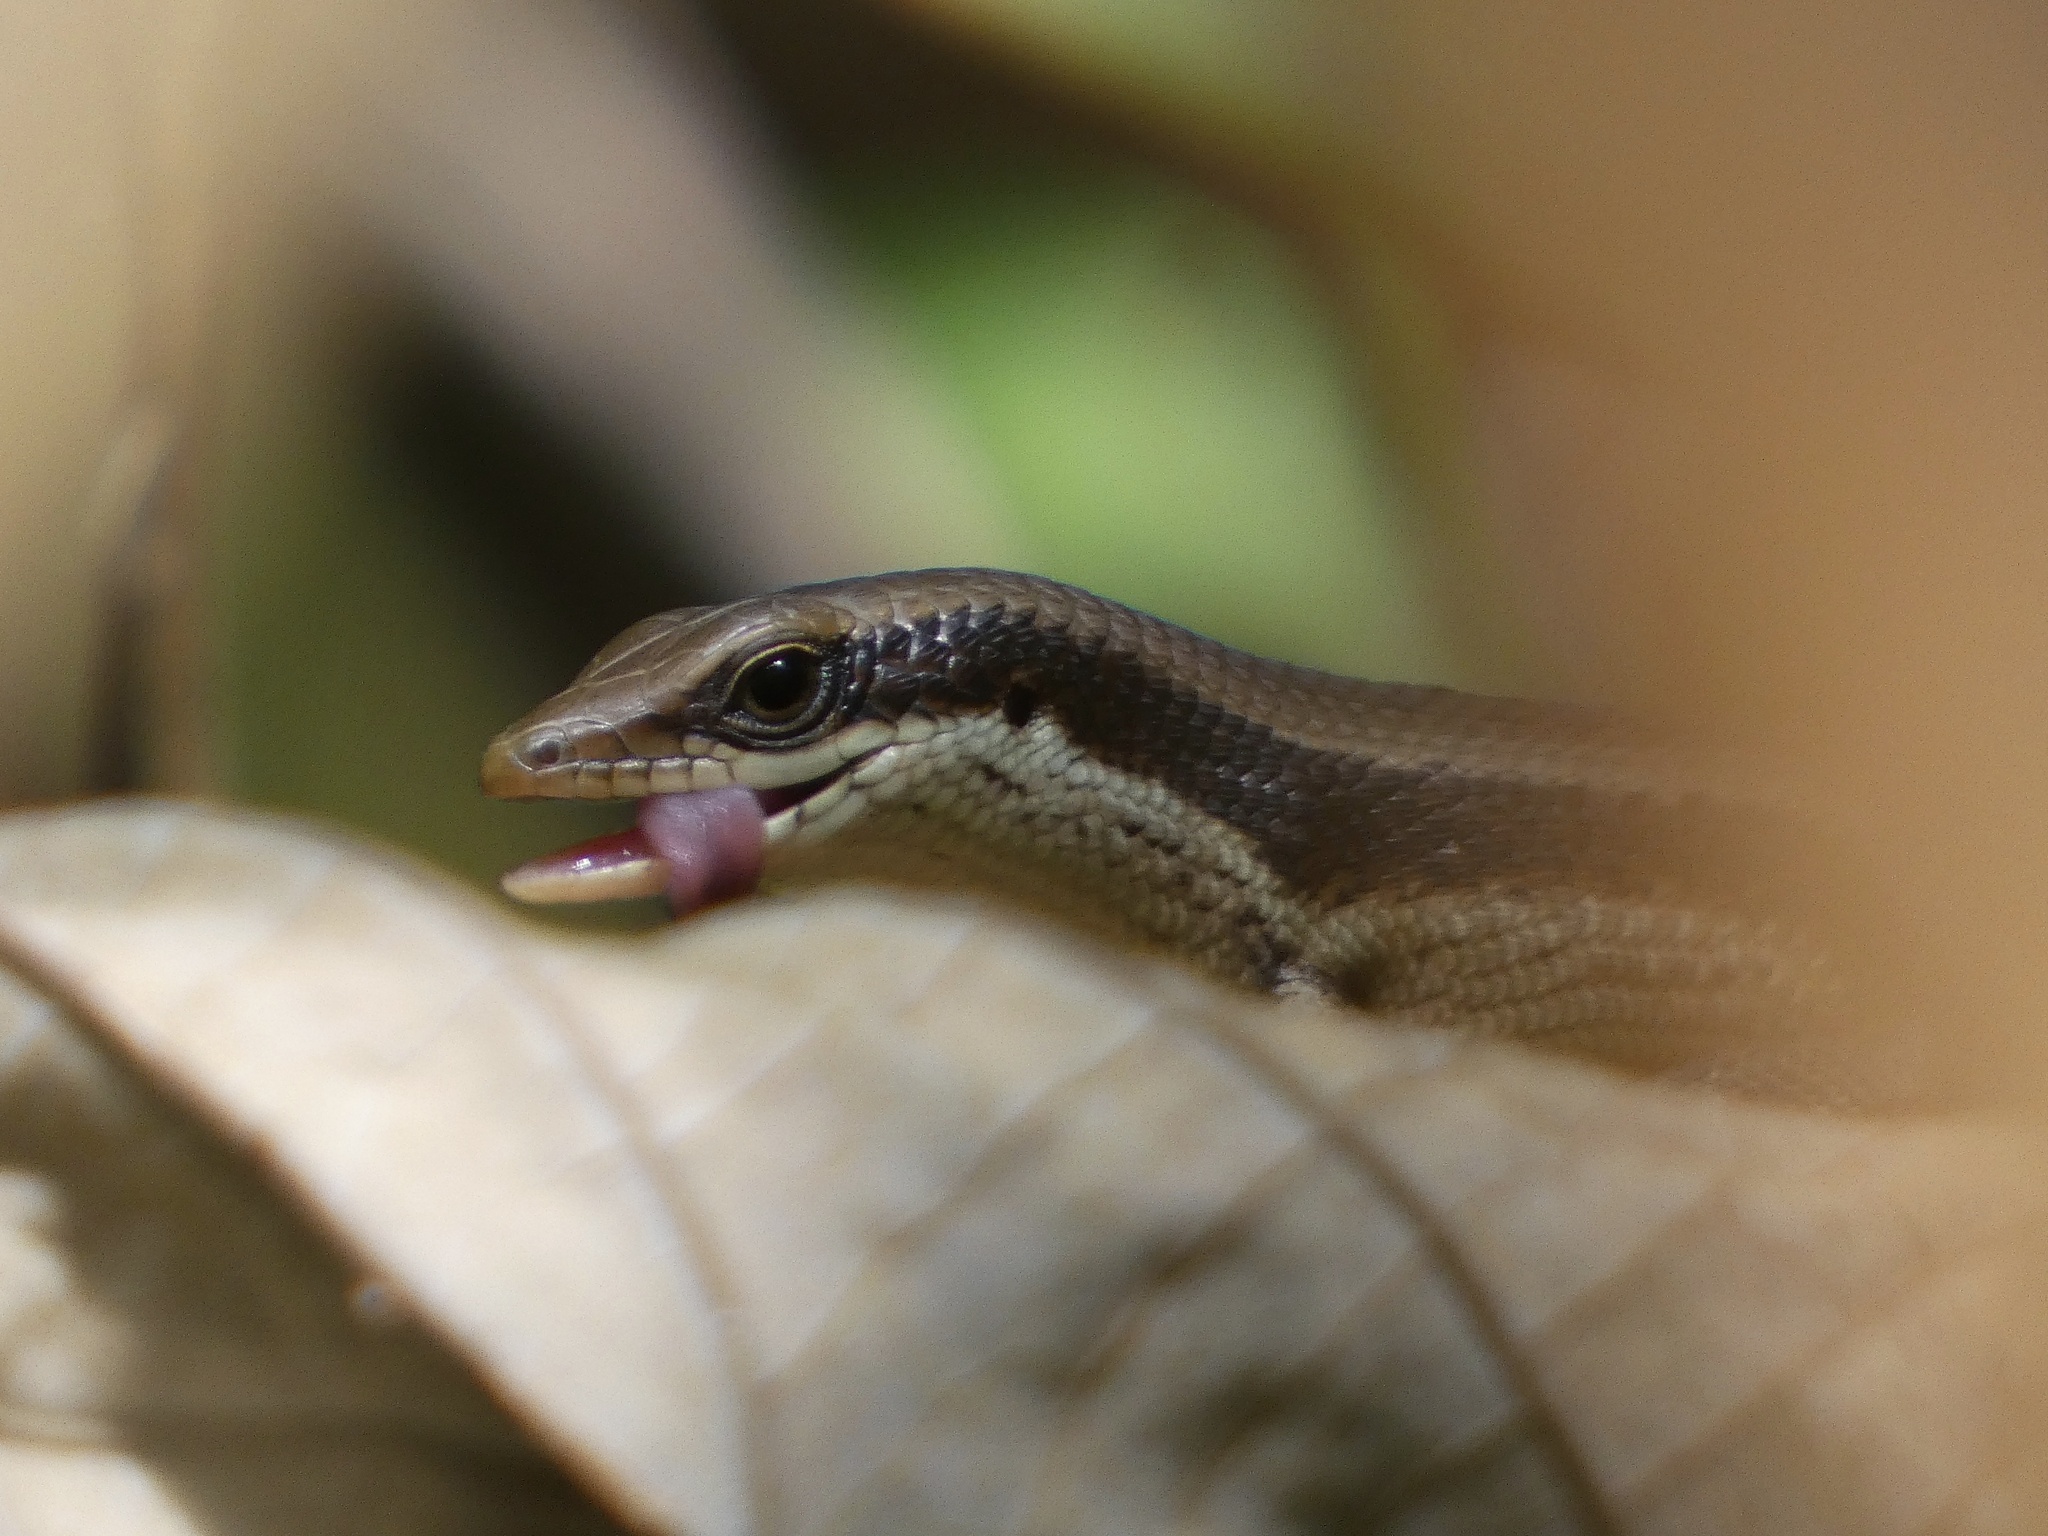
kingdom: Animalia
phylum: Chordata
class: Squamata
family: Scincidae
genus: Eutropis
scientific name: Eutropis multicarinata
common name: Two-striped mabouya
